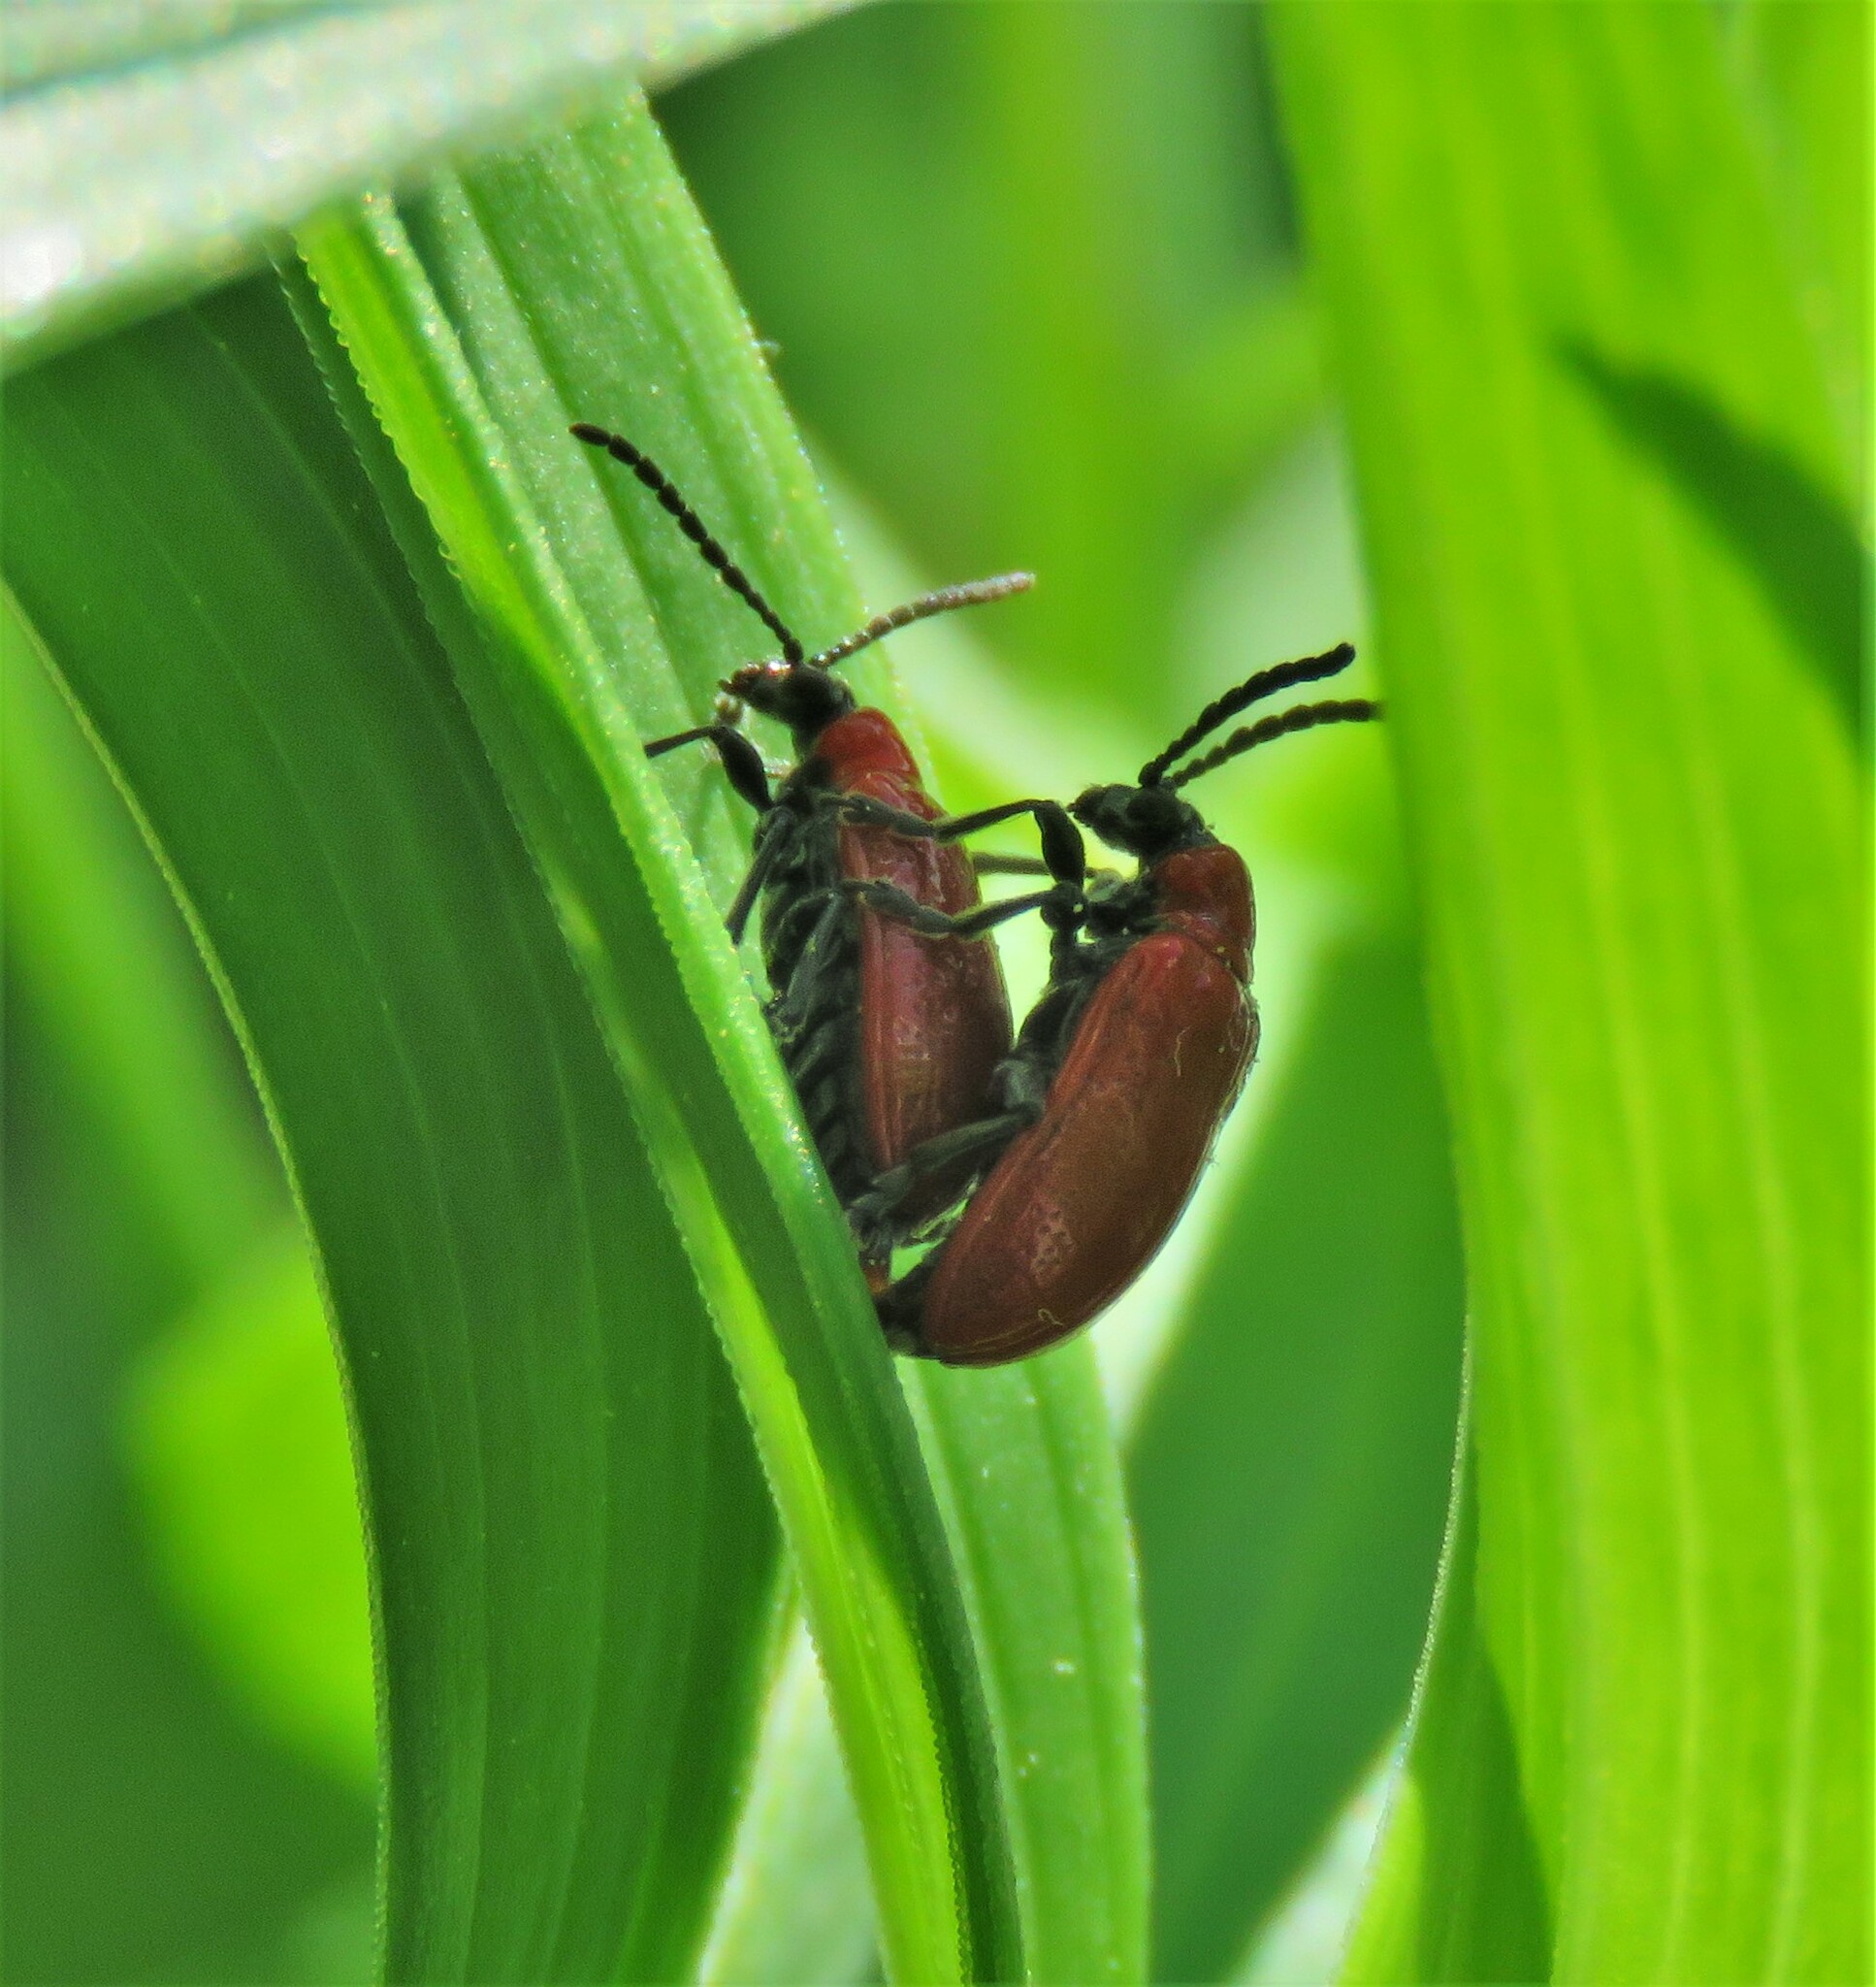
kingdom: Animalia
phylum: Arthropoda
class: Insecta
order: Coleoptera
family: Chrysomelidae
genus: Lilioceris
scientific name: Lilioceris lilii
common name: Lily beetle
